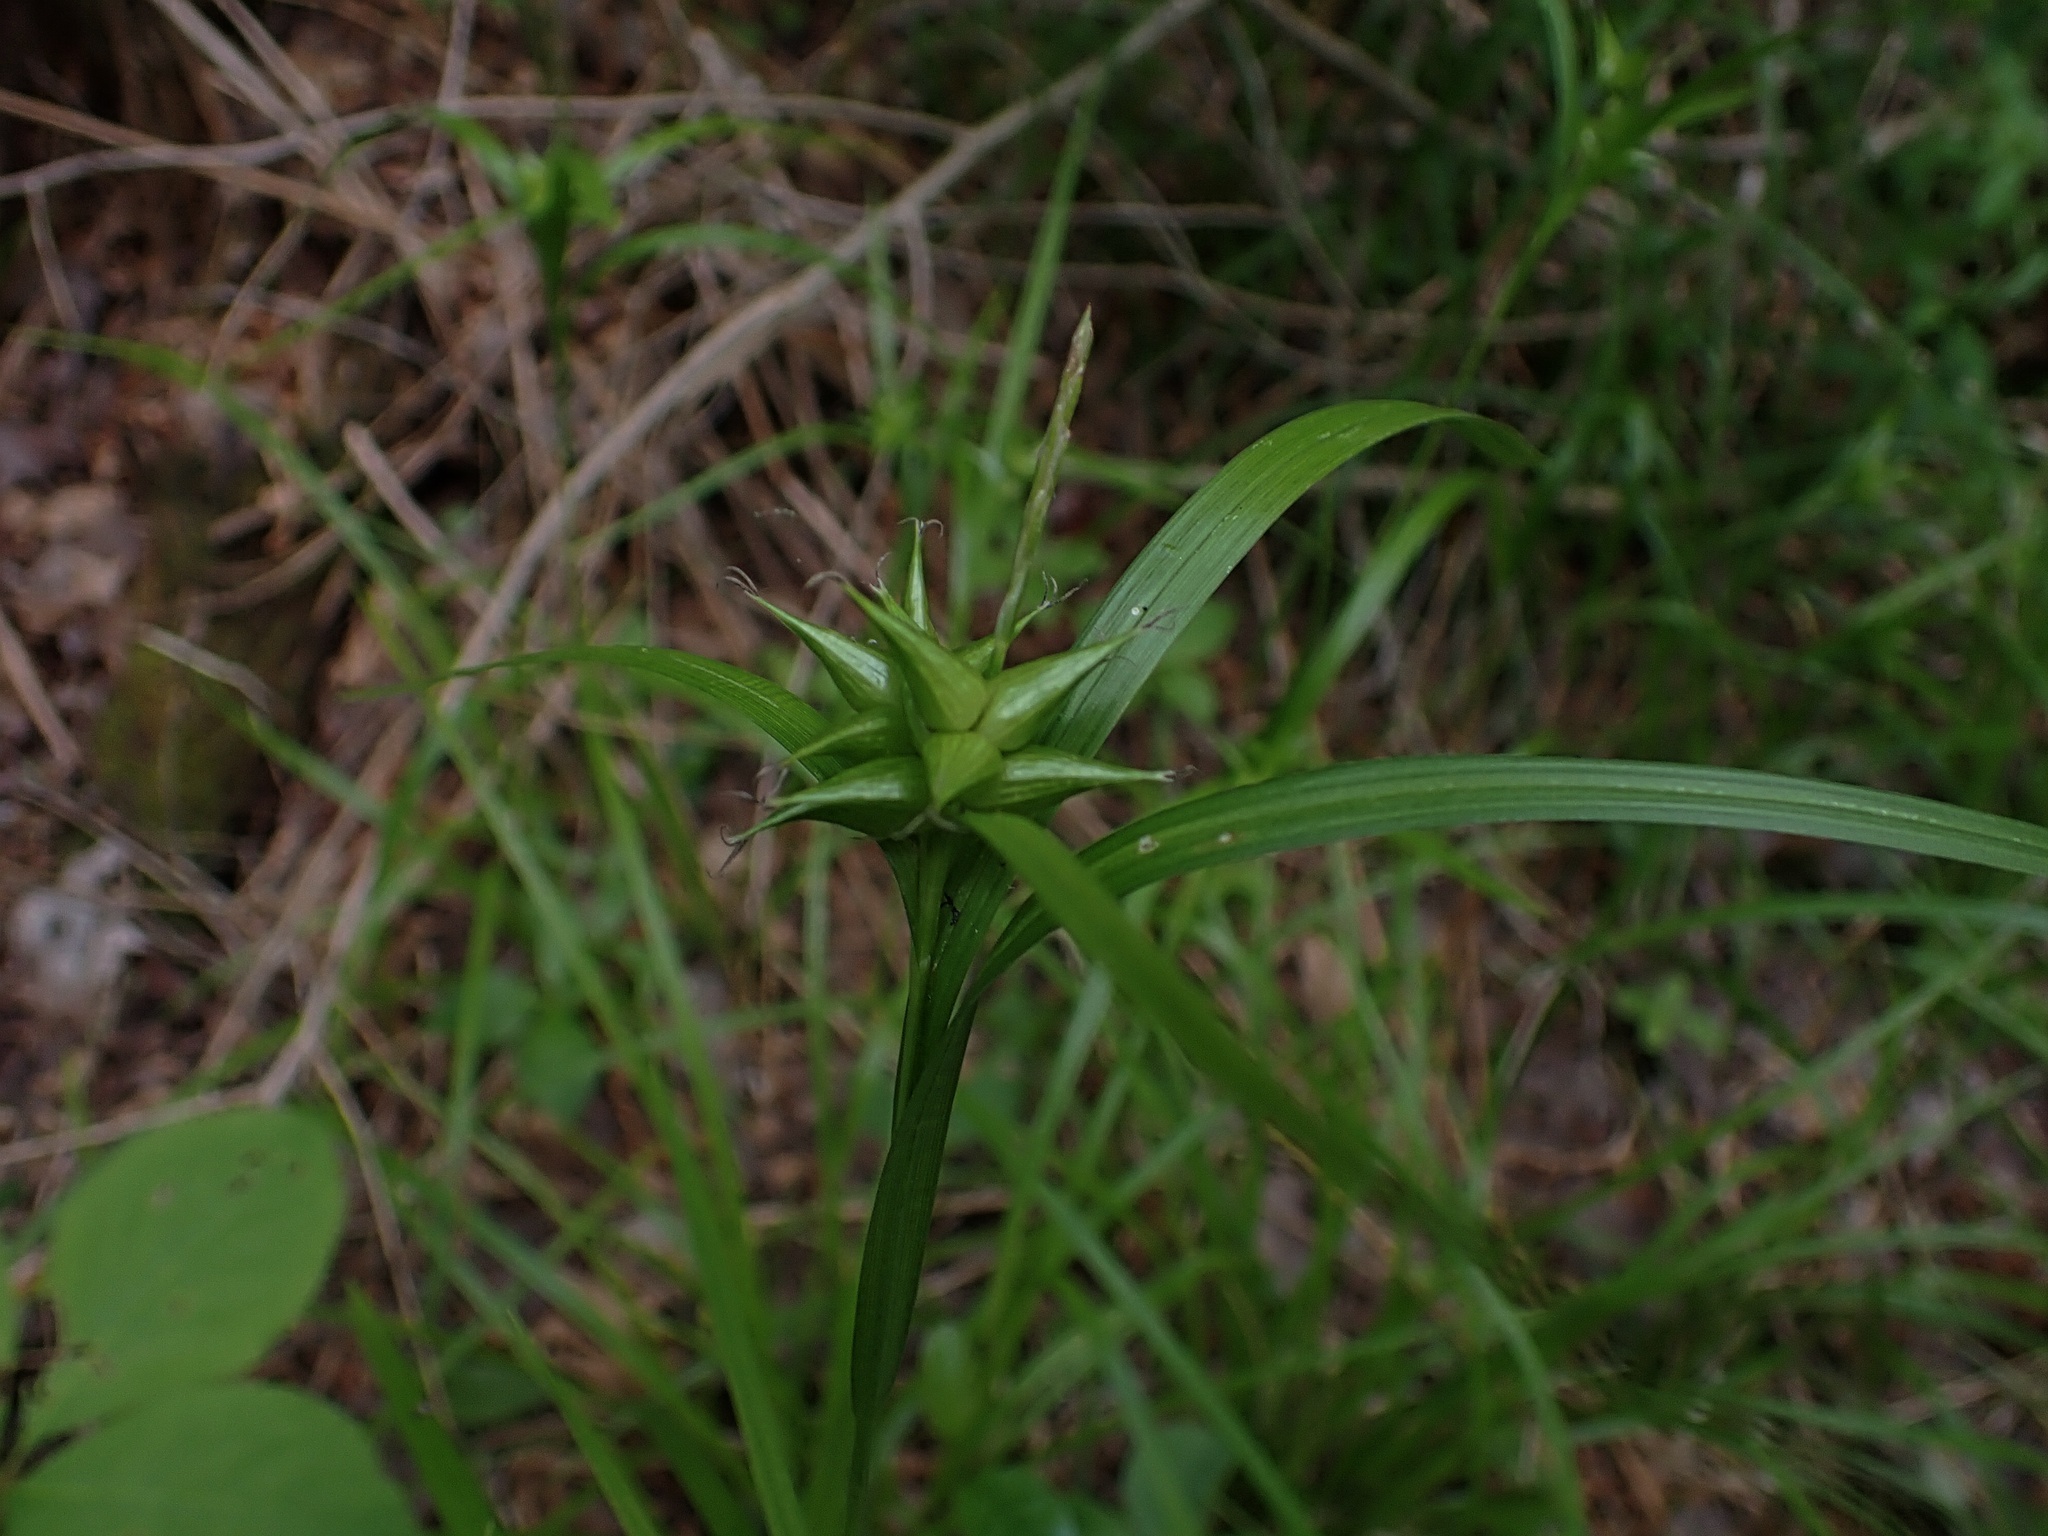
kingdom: Plantae
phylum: Tracheophyta
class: Liliopsida
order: Poales
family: Cyperaceae
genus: Carex
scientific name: Carex intumescens
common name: Greater bladder sedge
